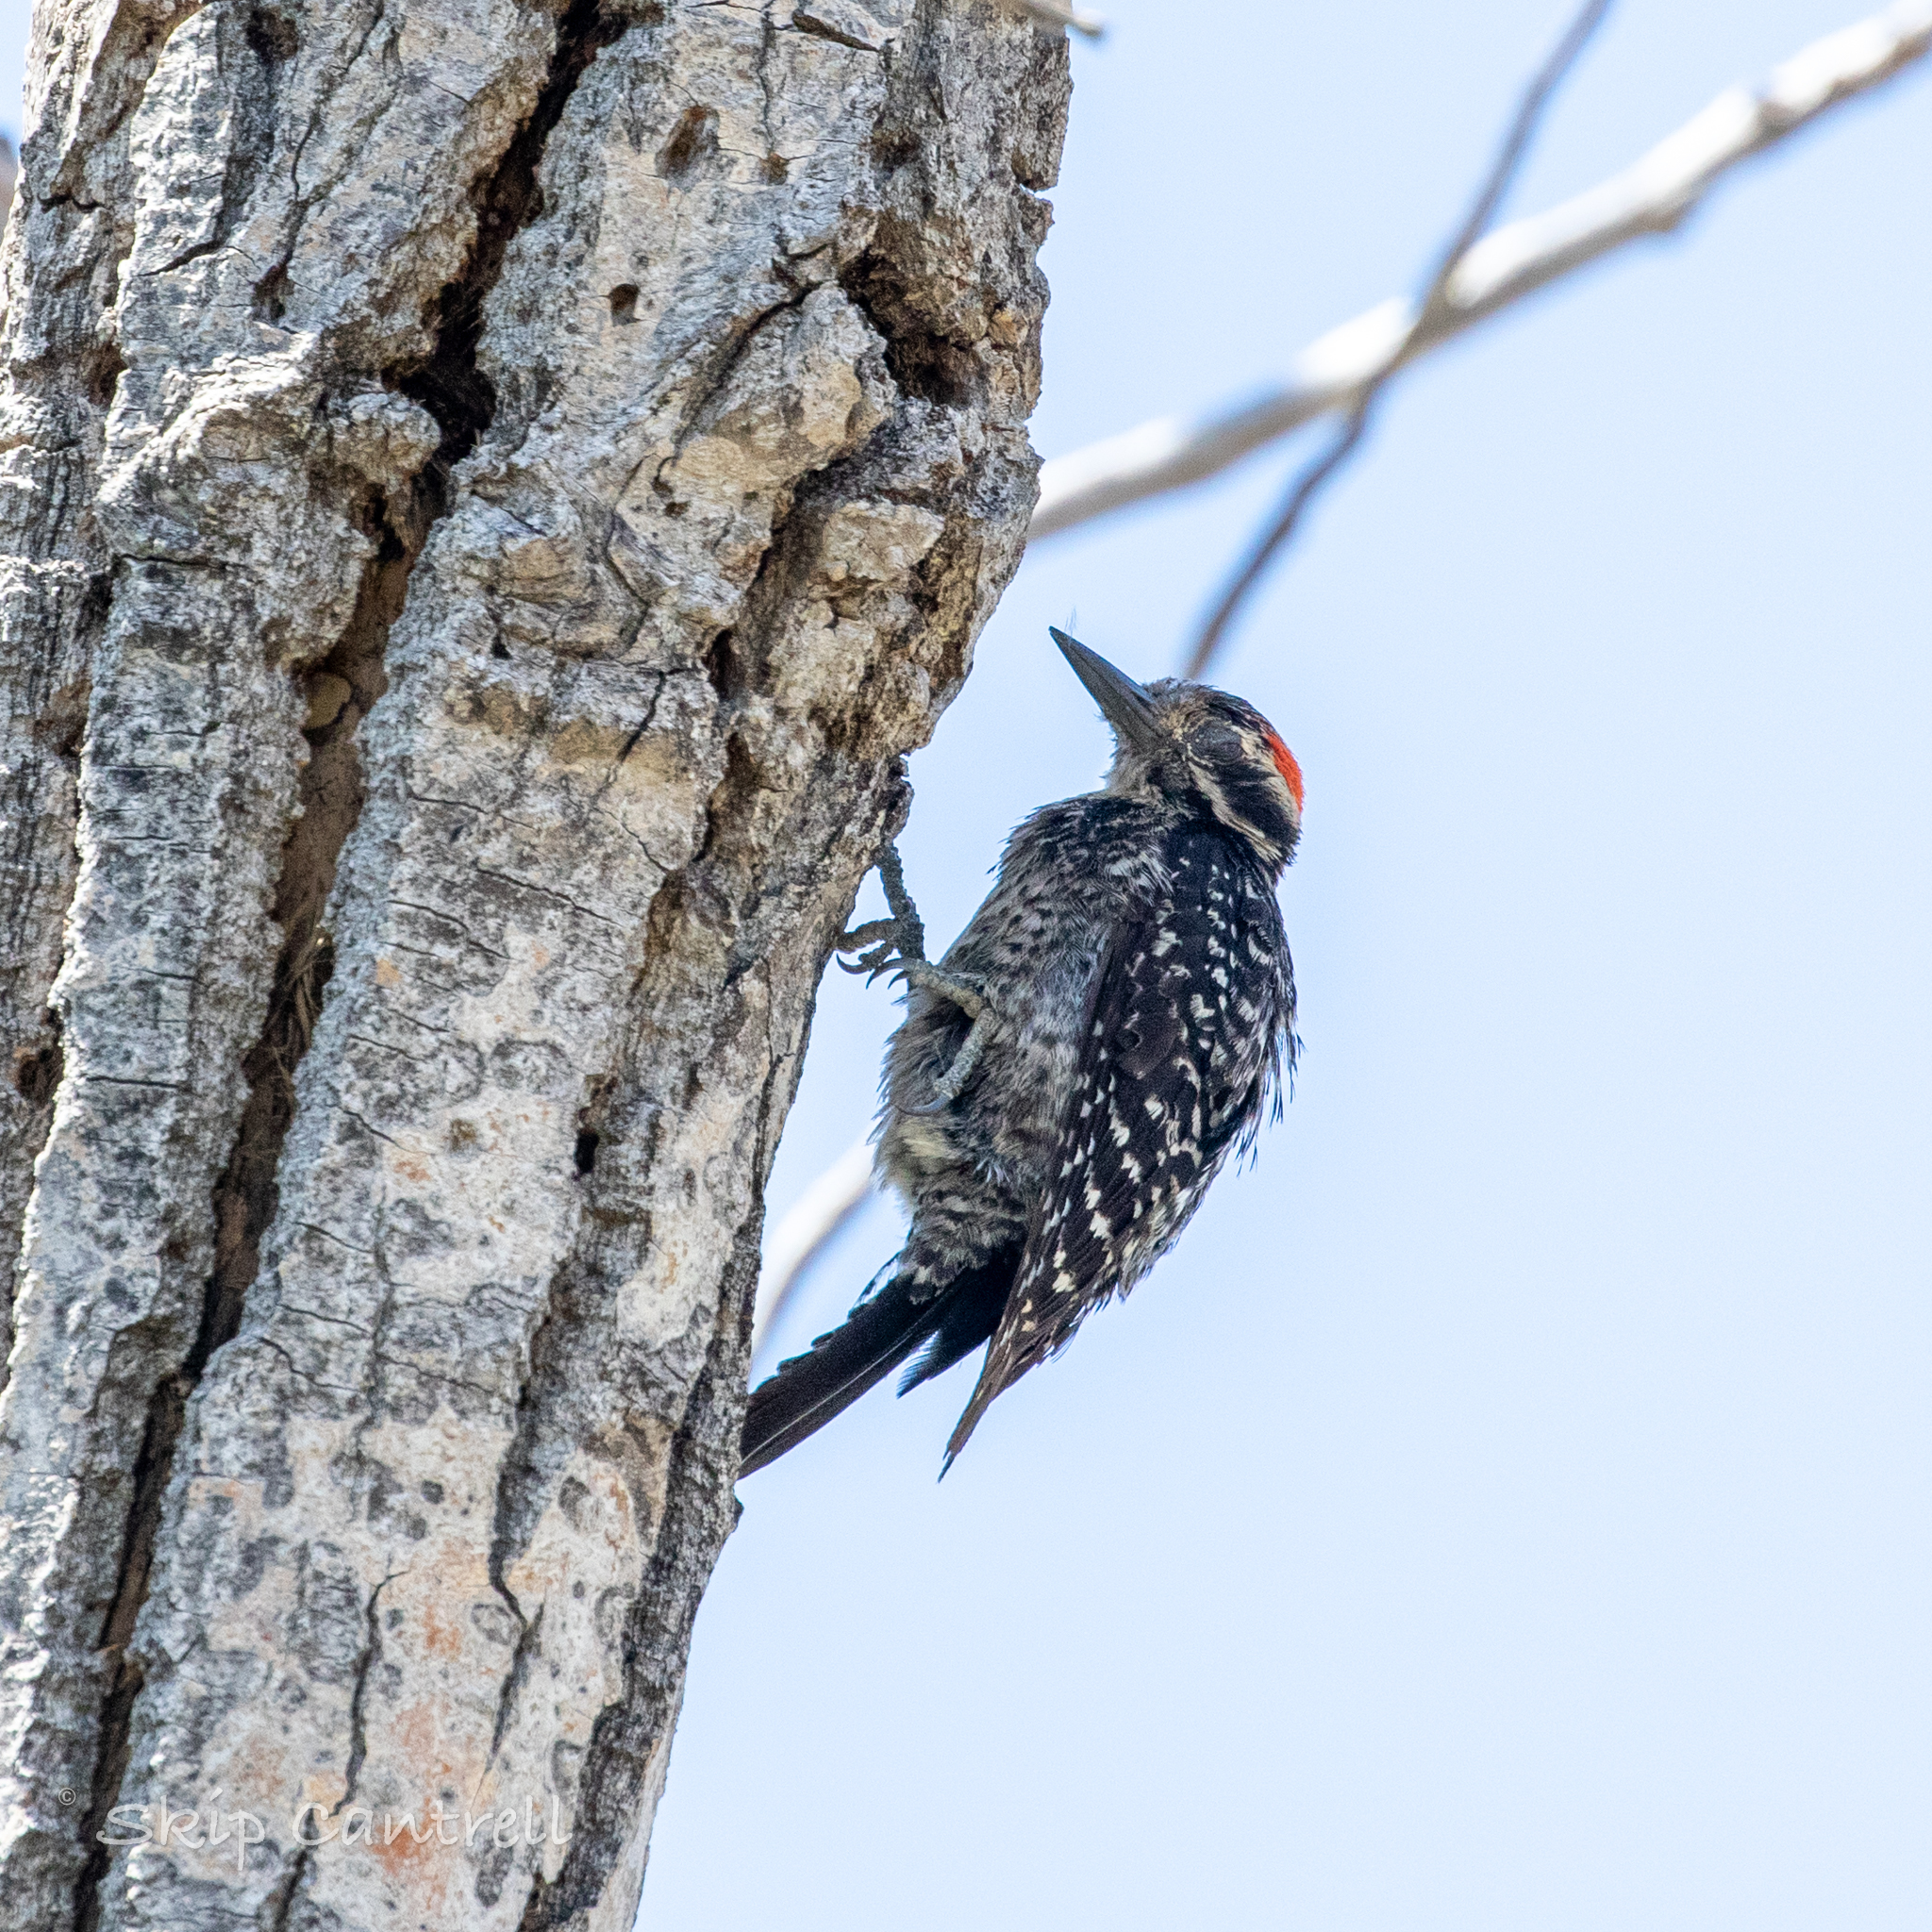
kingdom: Animalia
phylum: Chordata
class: Aves
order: Piciformes
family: Picidae
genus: Dryobates
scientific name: Dryobates scalaris
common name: Ladder-backed woodpecker
